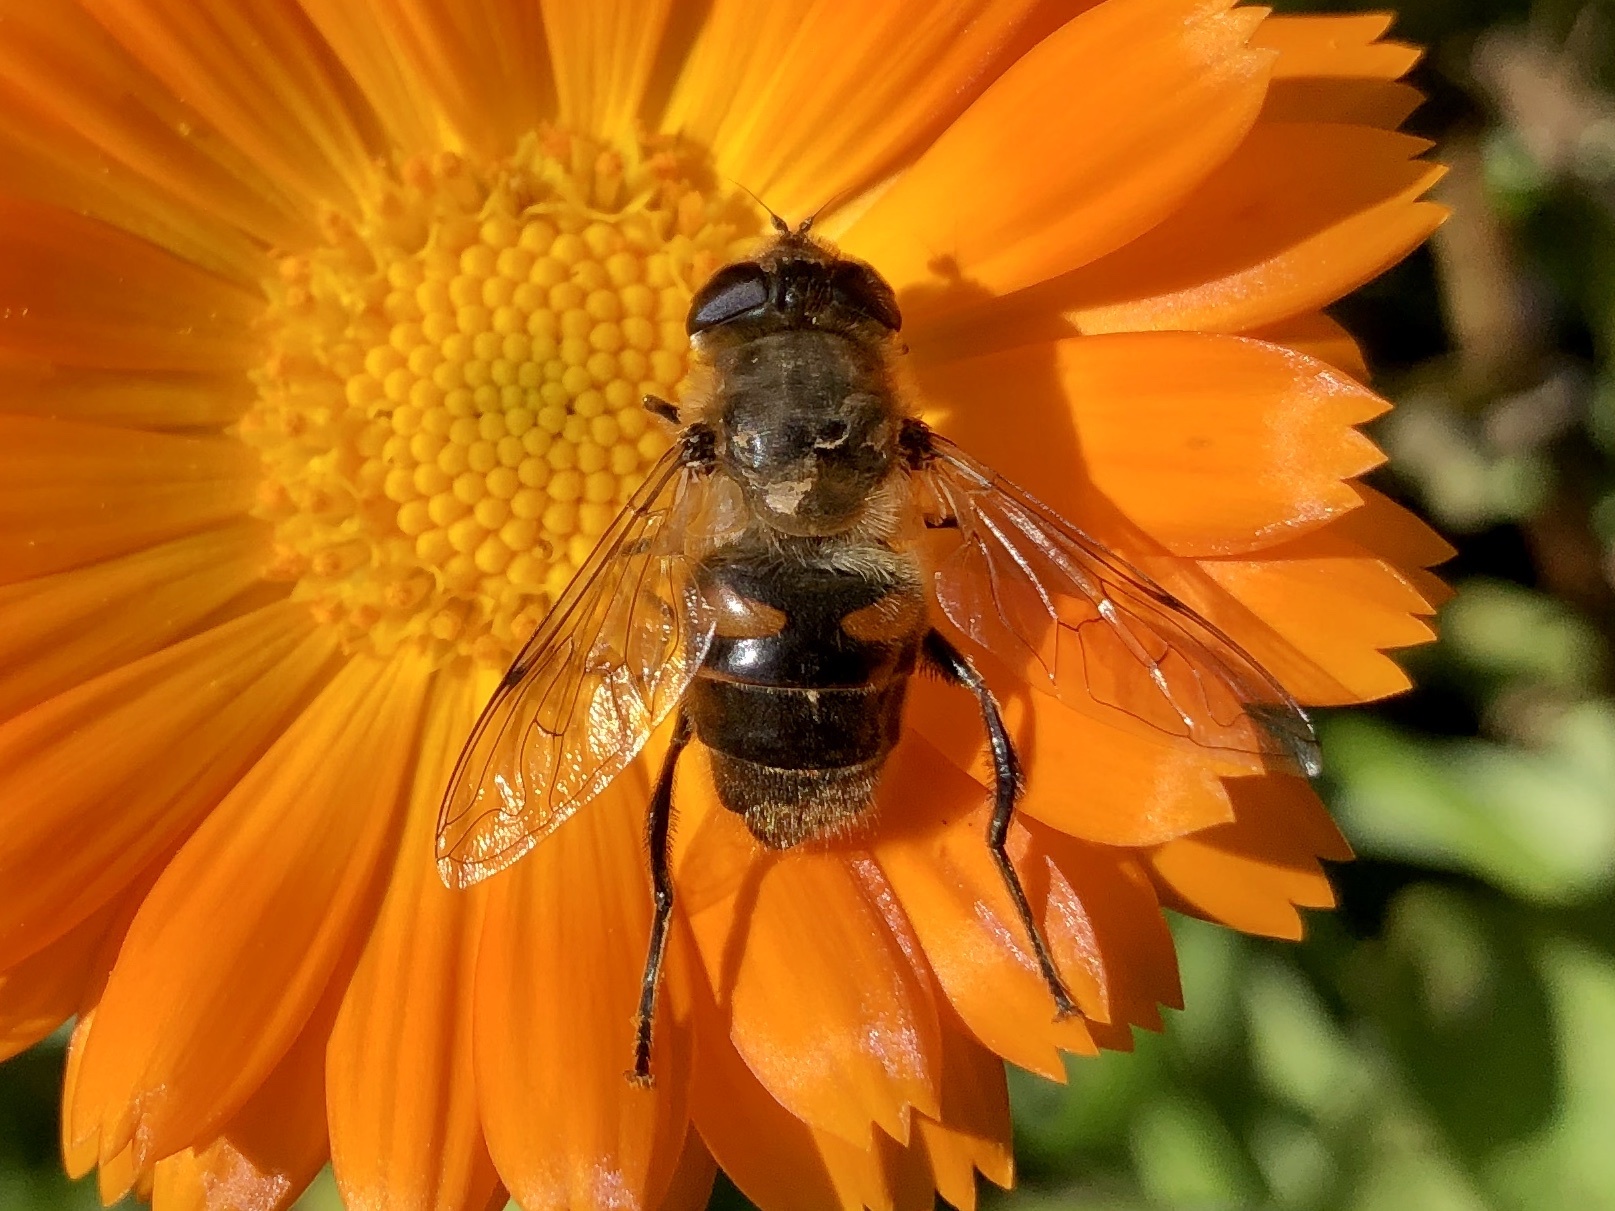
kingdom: Animalia
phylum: Arthropoda
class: Insecta
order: Diptera
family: Syrphidae
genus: Eristalis
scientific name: Eristalis tenax
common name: Drone fly
